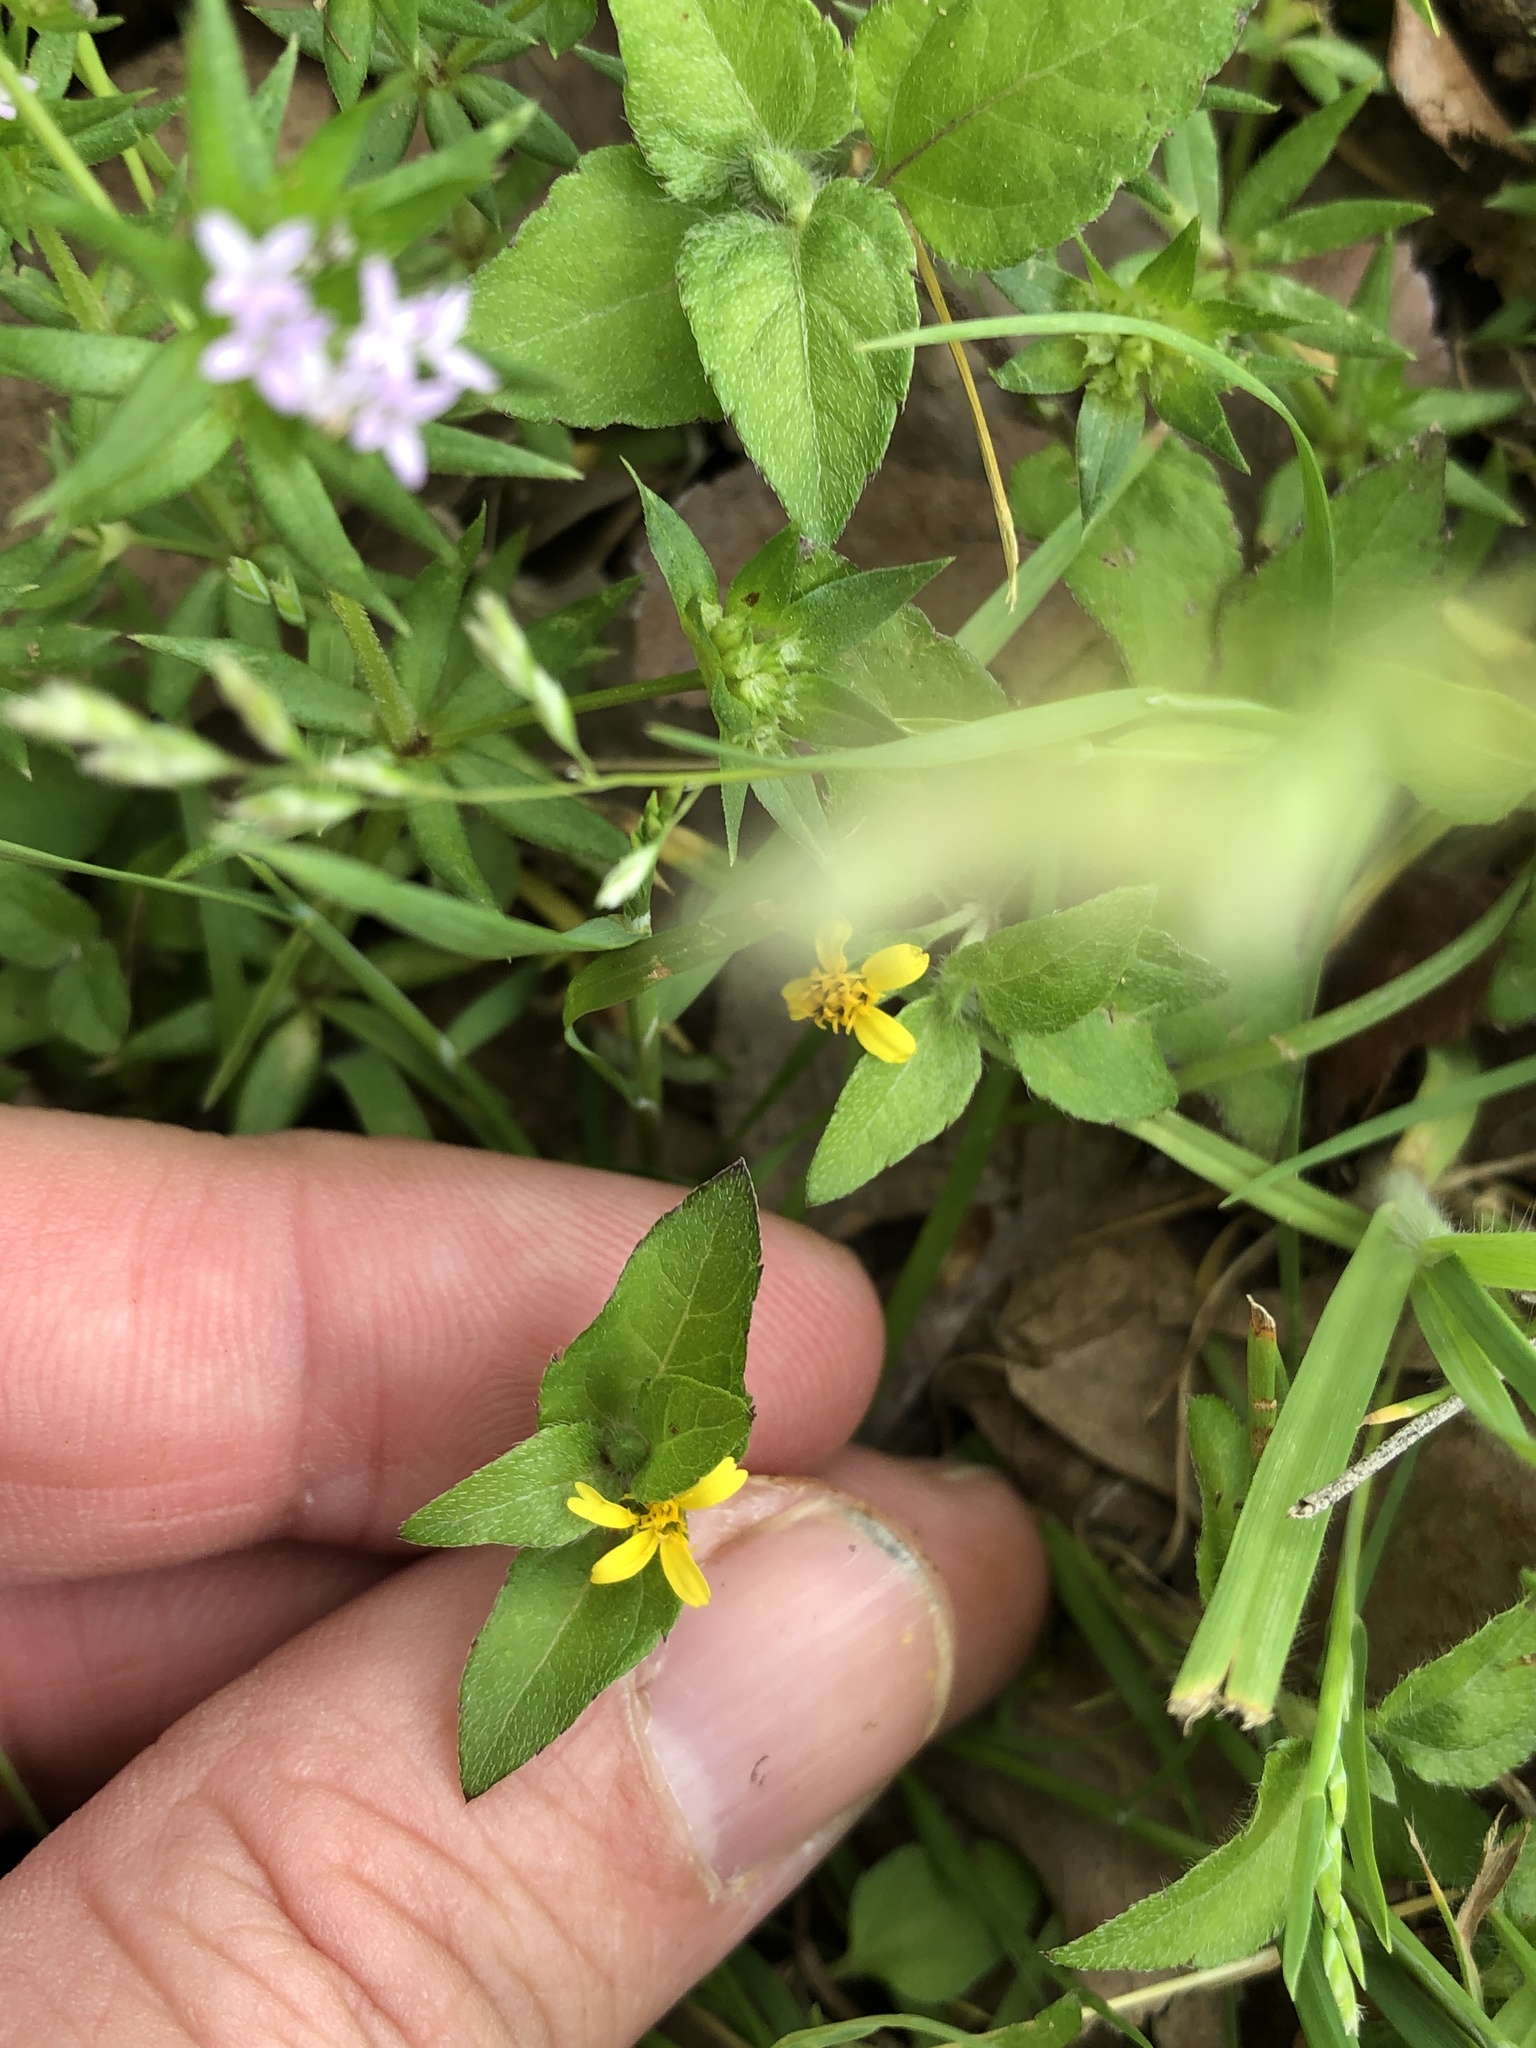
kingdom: Plantae
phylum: Tracheophyta
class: Magnoliopsida
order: Asterales
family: Asteraceae
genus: Calyptocarpus
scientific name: Calyptocarpus vialis
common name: Straggler daisy
